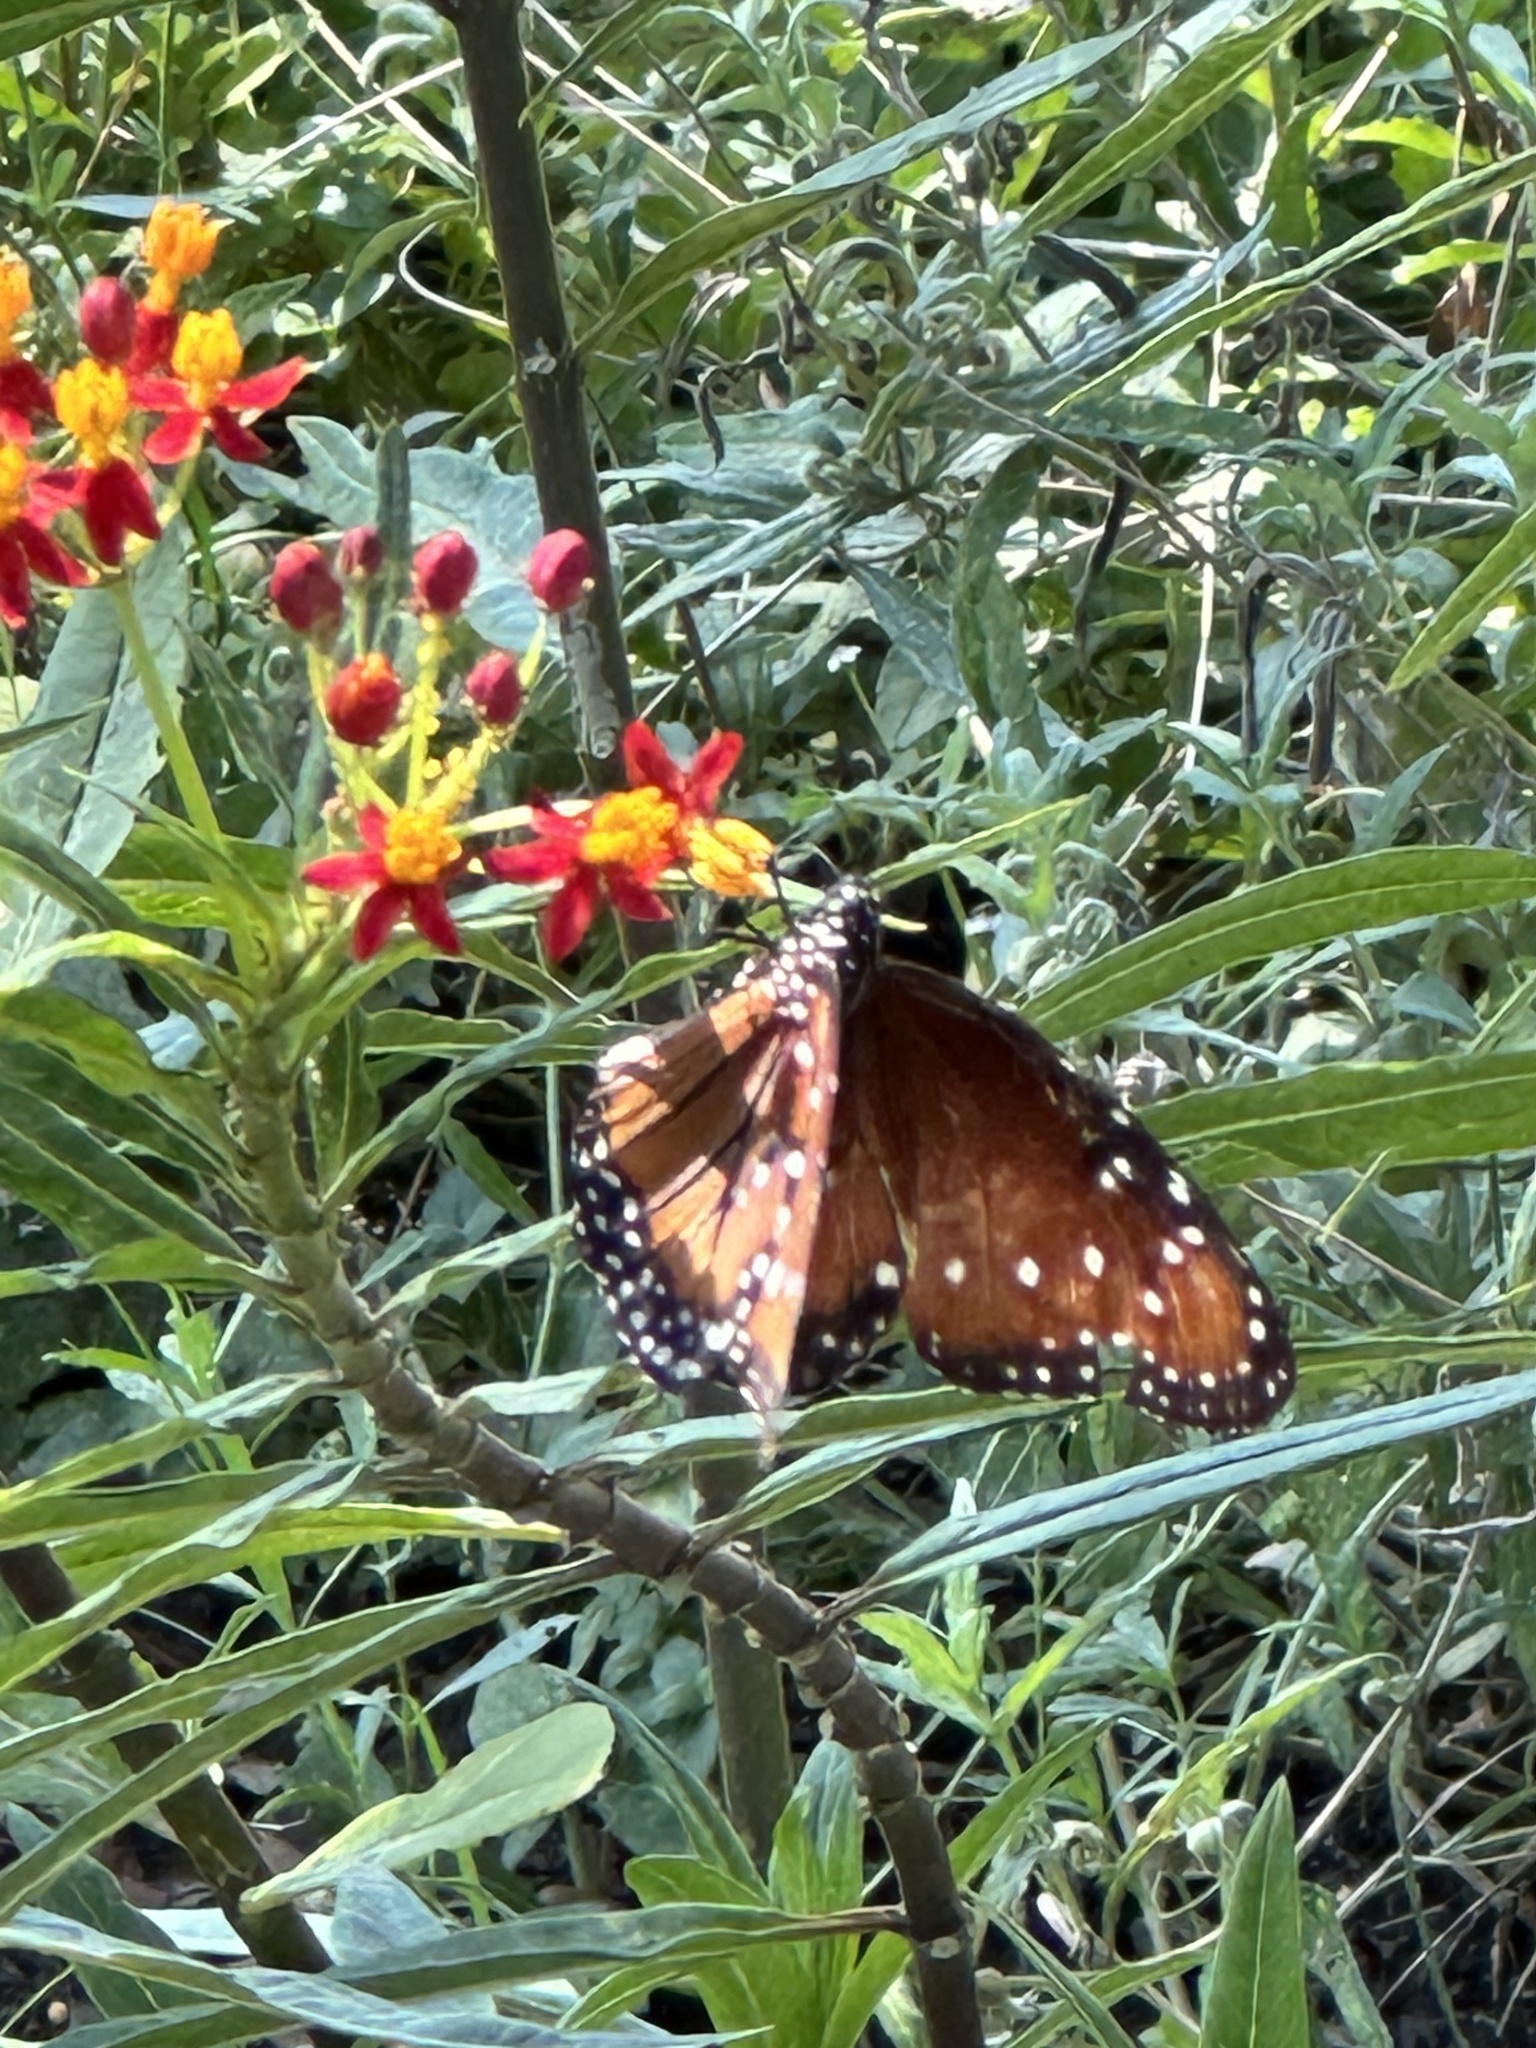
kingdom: Animalia
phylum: Arthropoda
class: Insecta
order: Lepidoptera
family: Nymphalidae
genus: Danaus
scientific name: Danaus gilippus
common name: Queen
